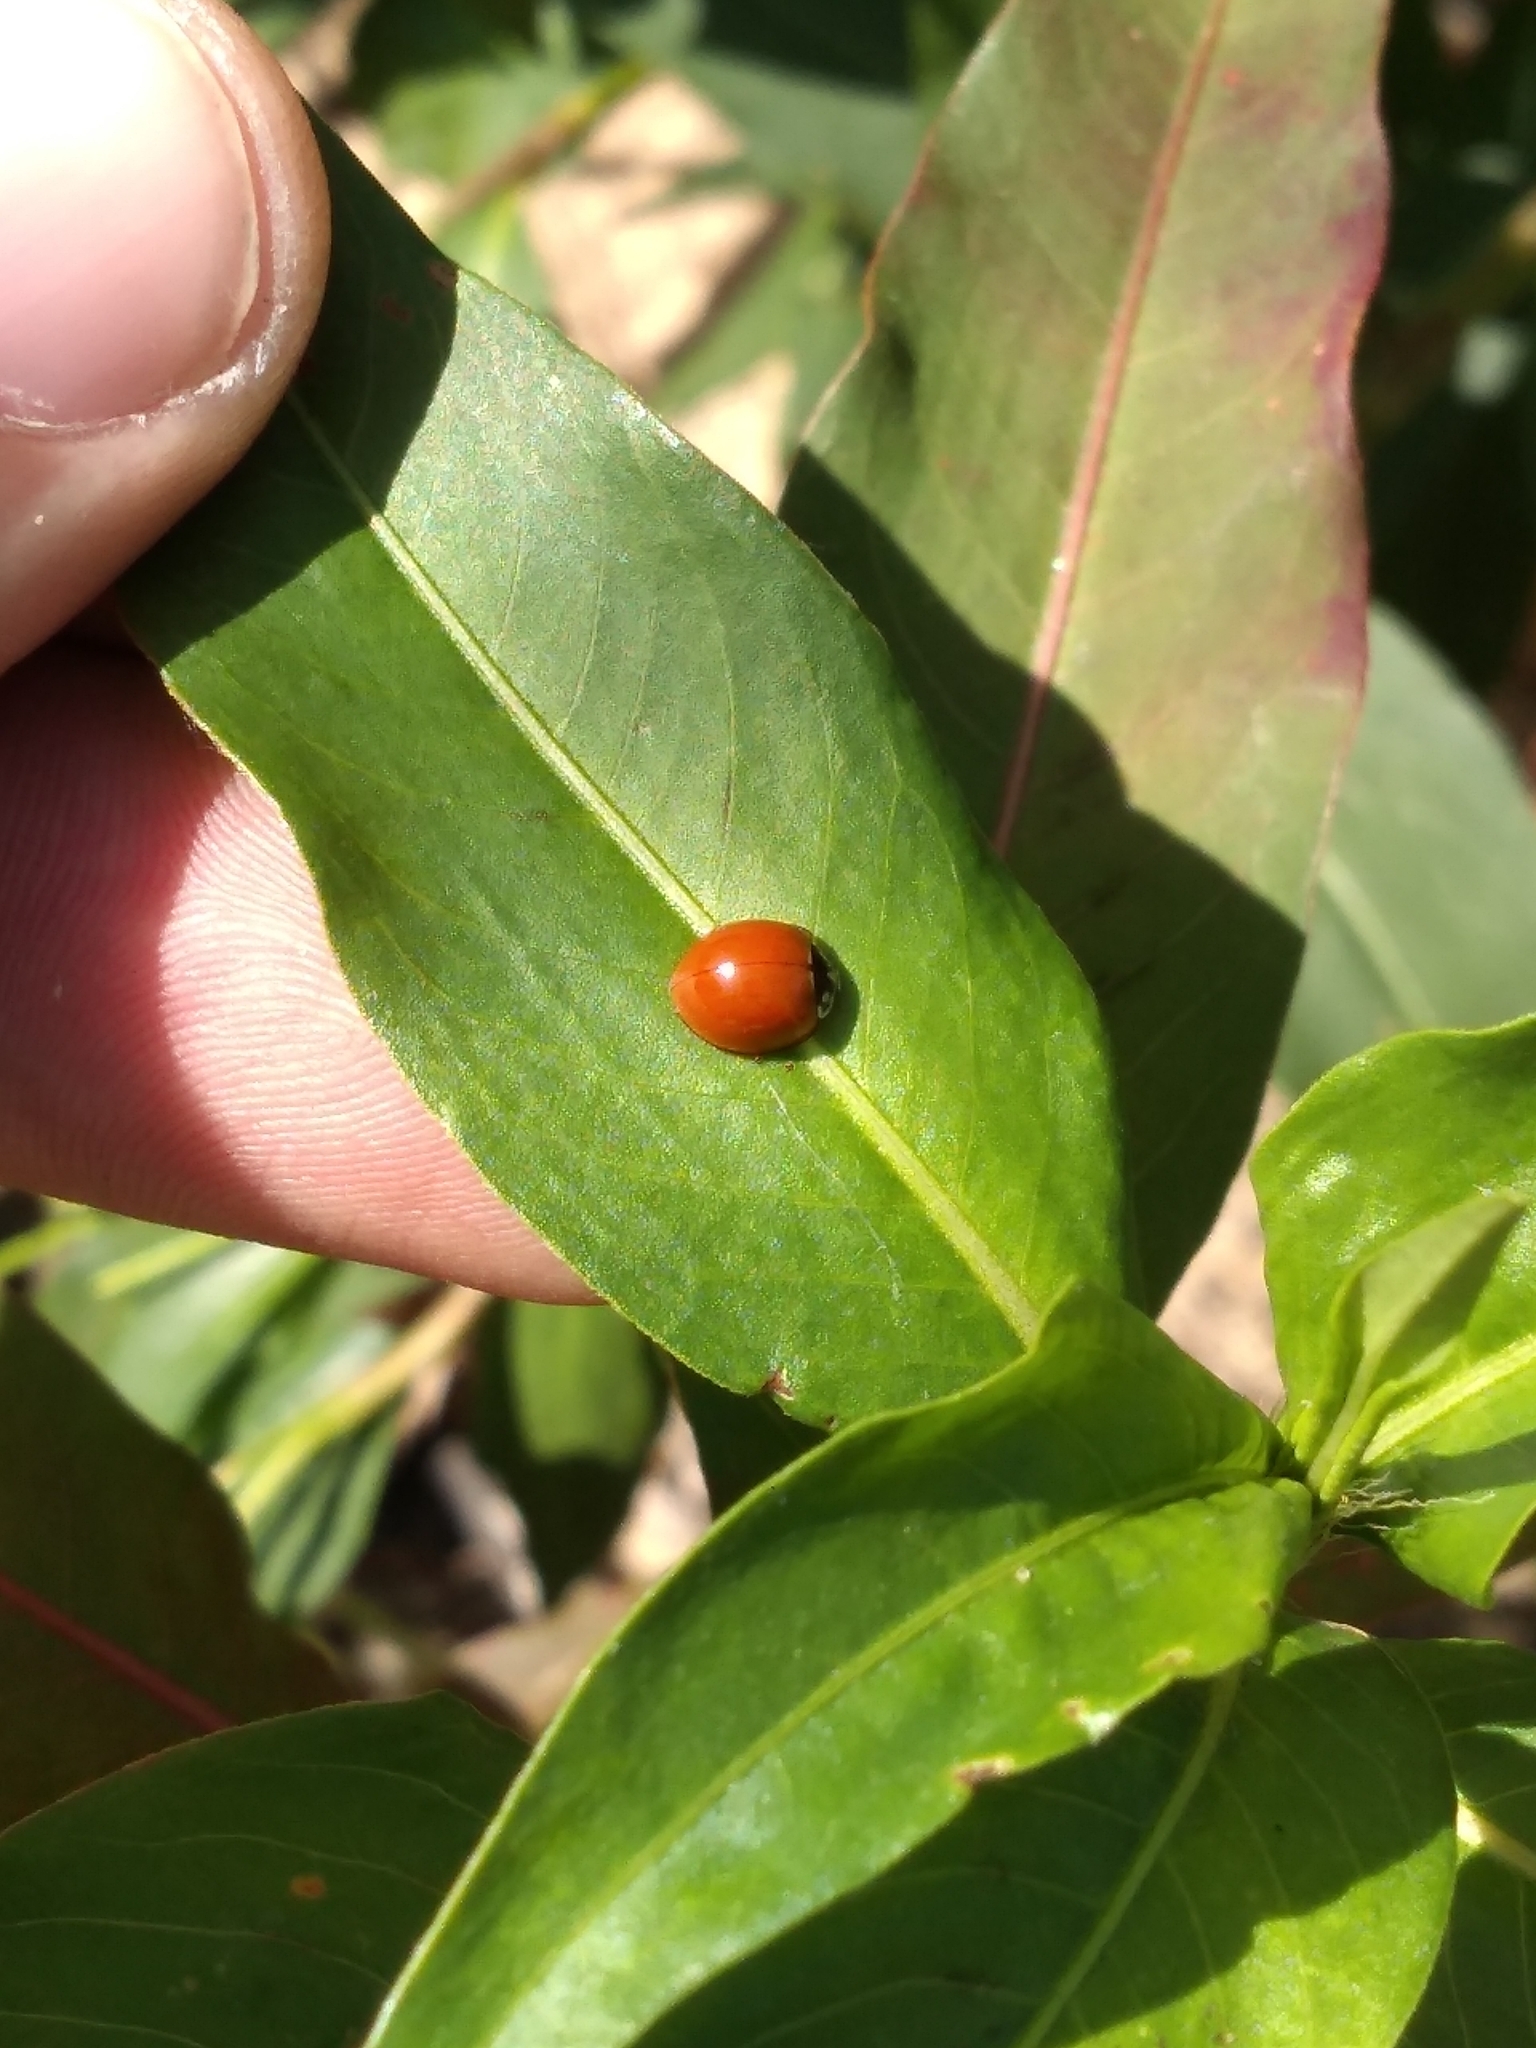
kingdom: Animalia
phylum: Arthropoda
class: Insecta
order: Coleoptera
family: Coccinellidae
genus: Cycloneda
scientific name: Cycloneda sanguinea
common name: Ladybird beetle
